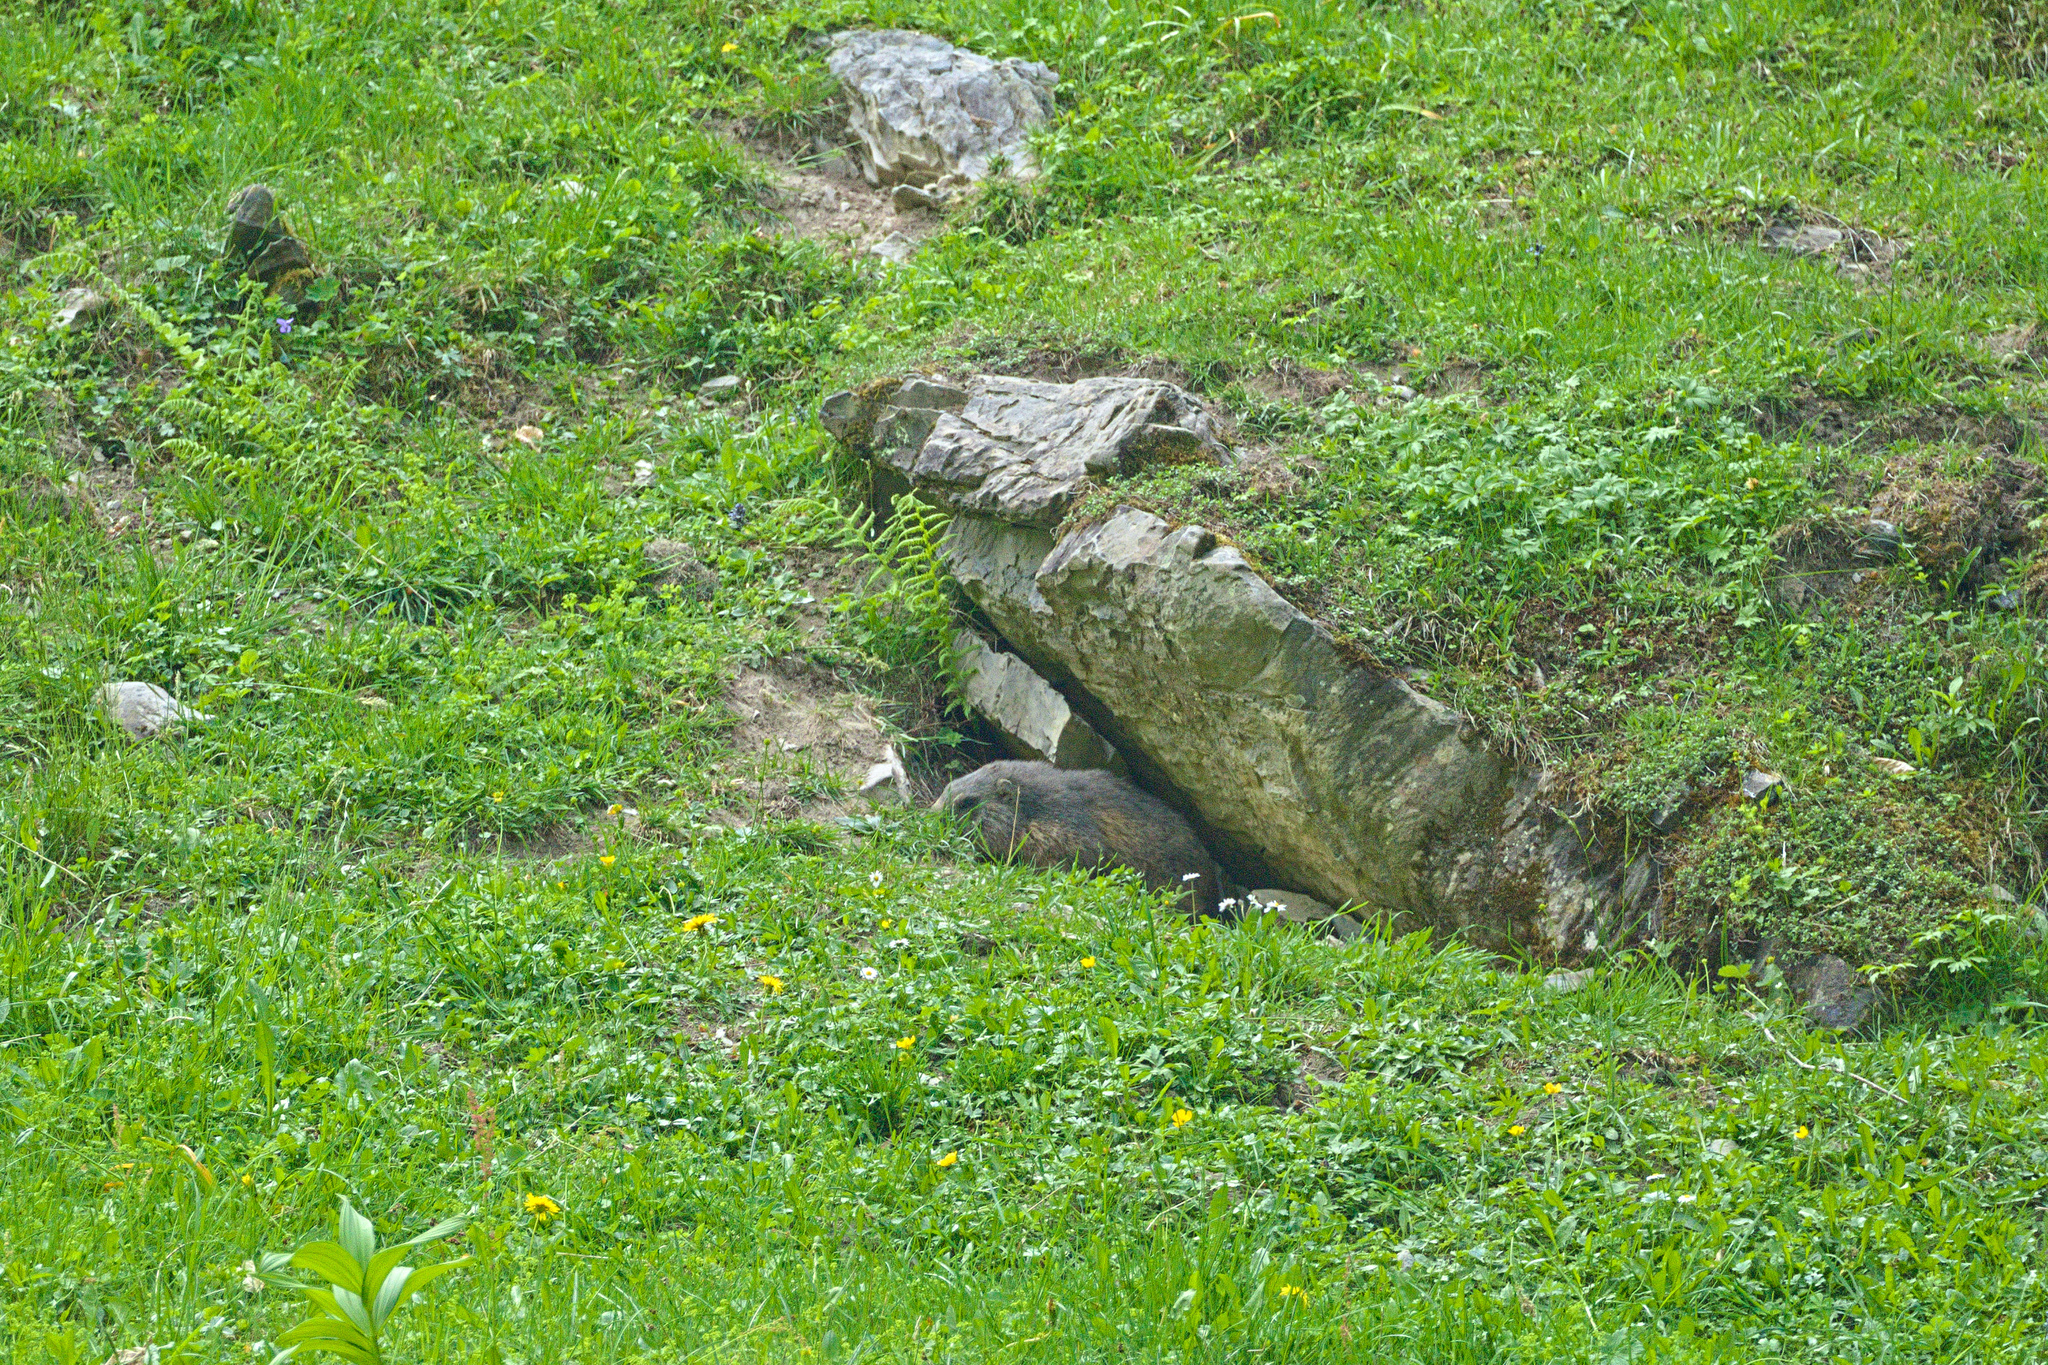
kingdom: Animalia
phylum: Chordata
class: Mammalia
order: Rodentia
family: Sciuridae
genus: Marmota
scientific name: Marmota marmota
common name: Alpine marmot
